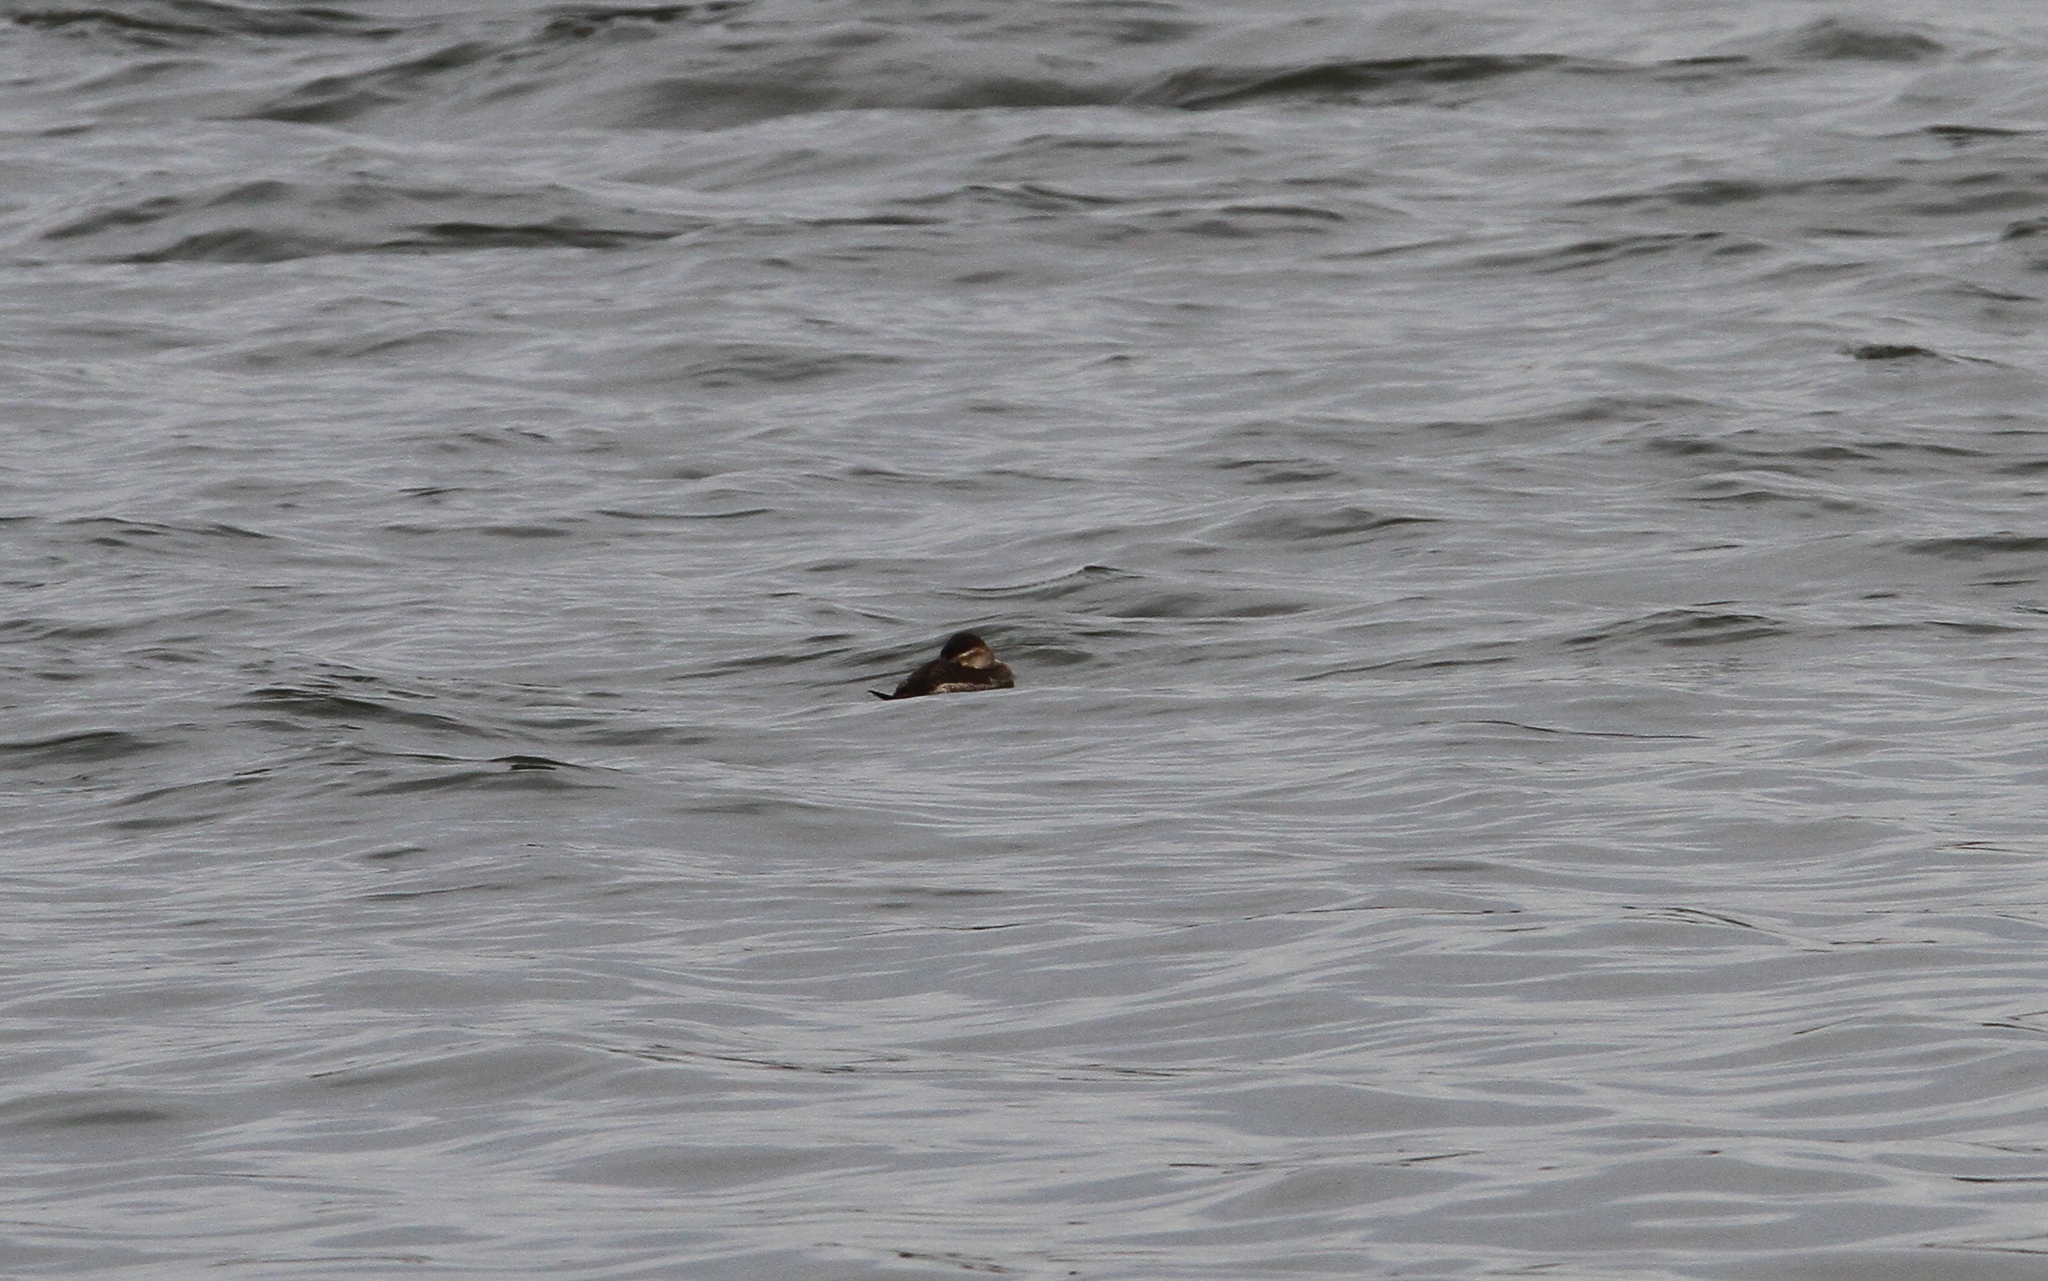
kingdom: Animalia
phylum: Chordata
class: Aves
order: Anseriformes
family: Anatidae
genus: Oxyura
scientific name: Oxyura jamaicensis
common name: Ruddy duck
